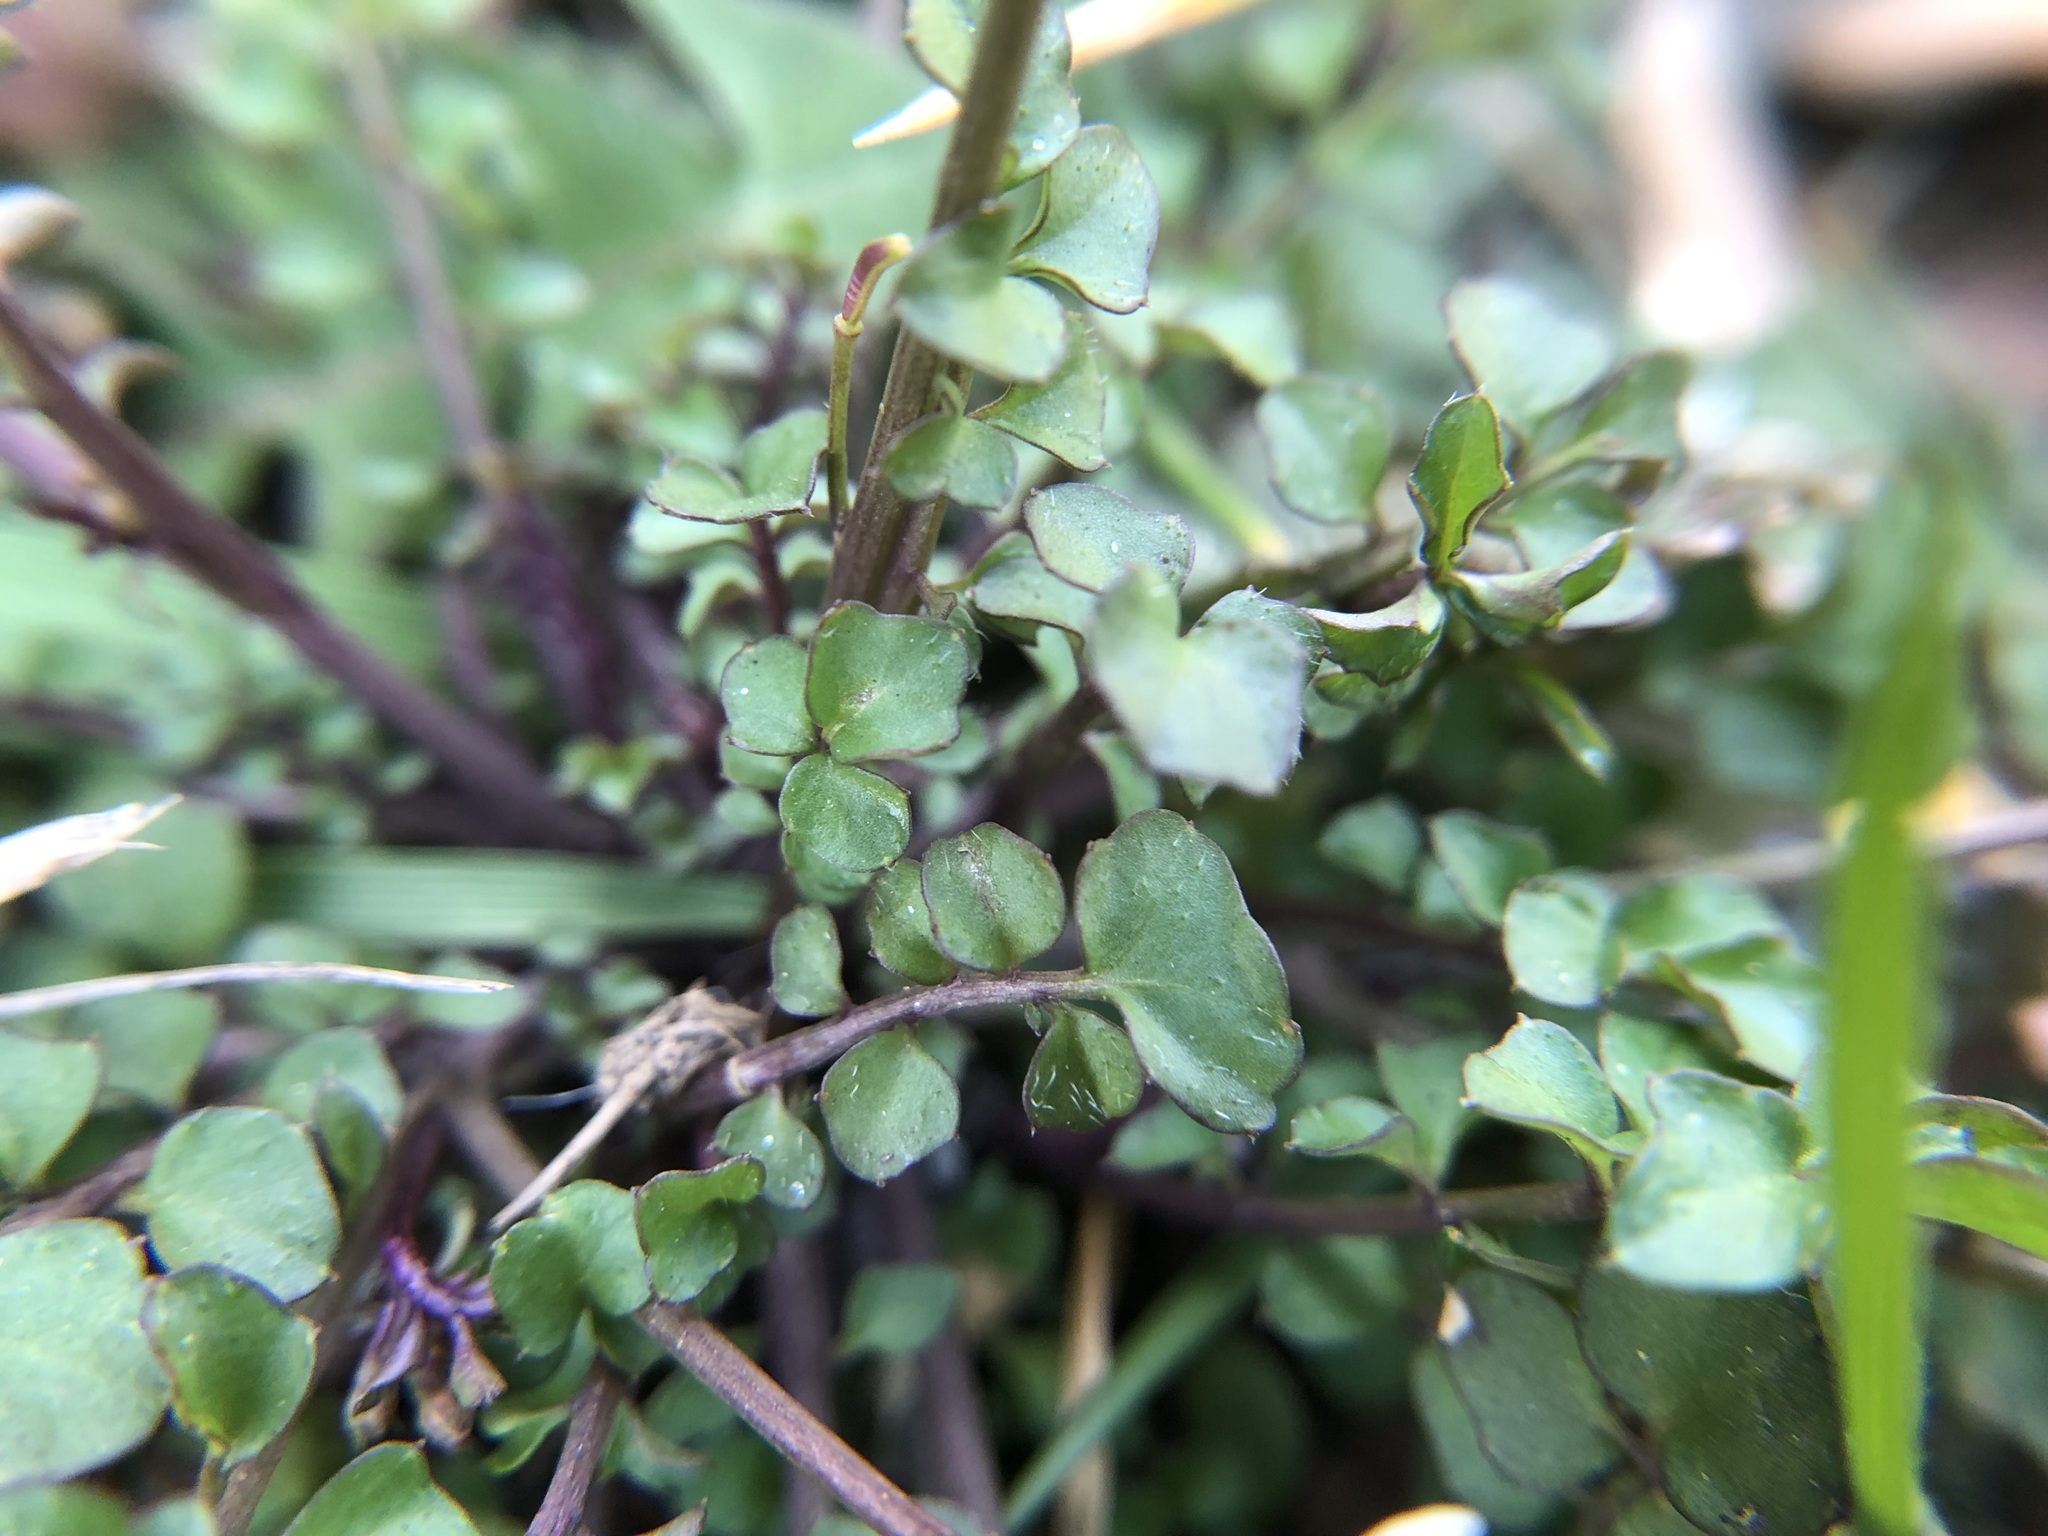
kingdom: Plantae
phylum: Tracheophyta
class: Magnoliopsida
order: Brassicales
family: Brassicaceae
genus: Cardamine
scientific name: Cardamine hirsuta
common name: Hairy bittercress
